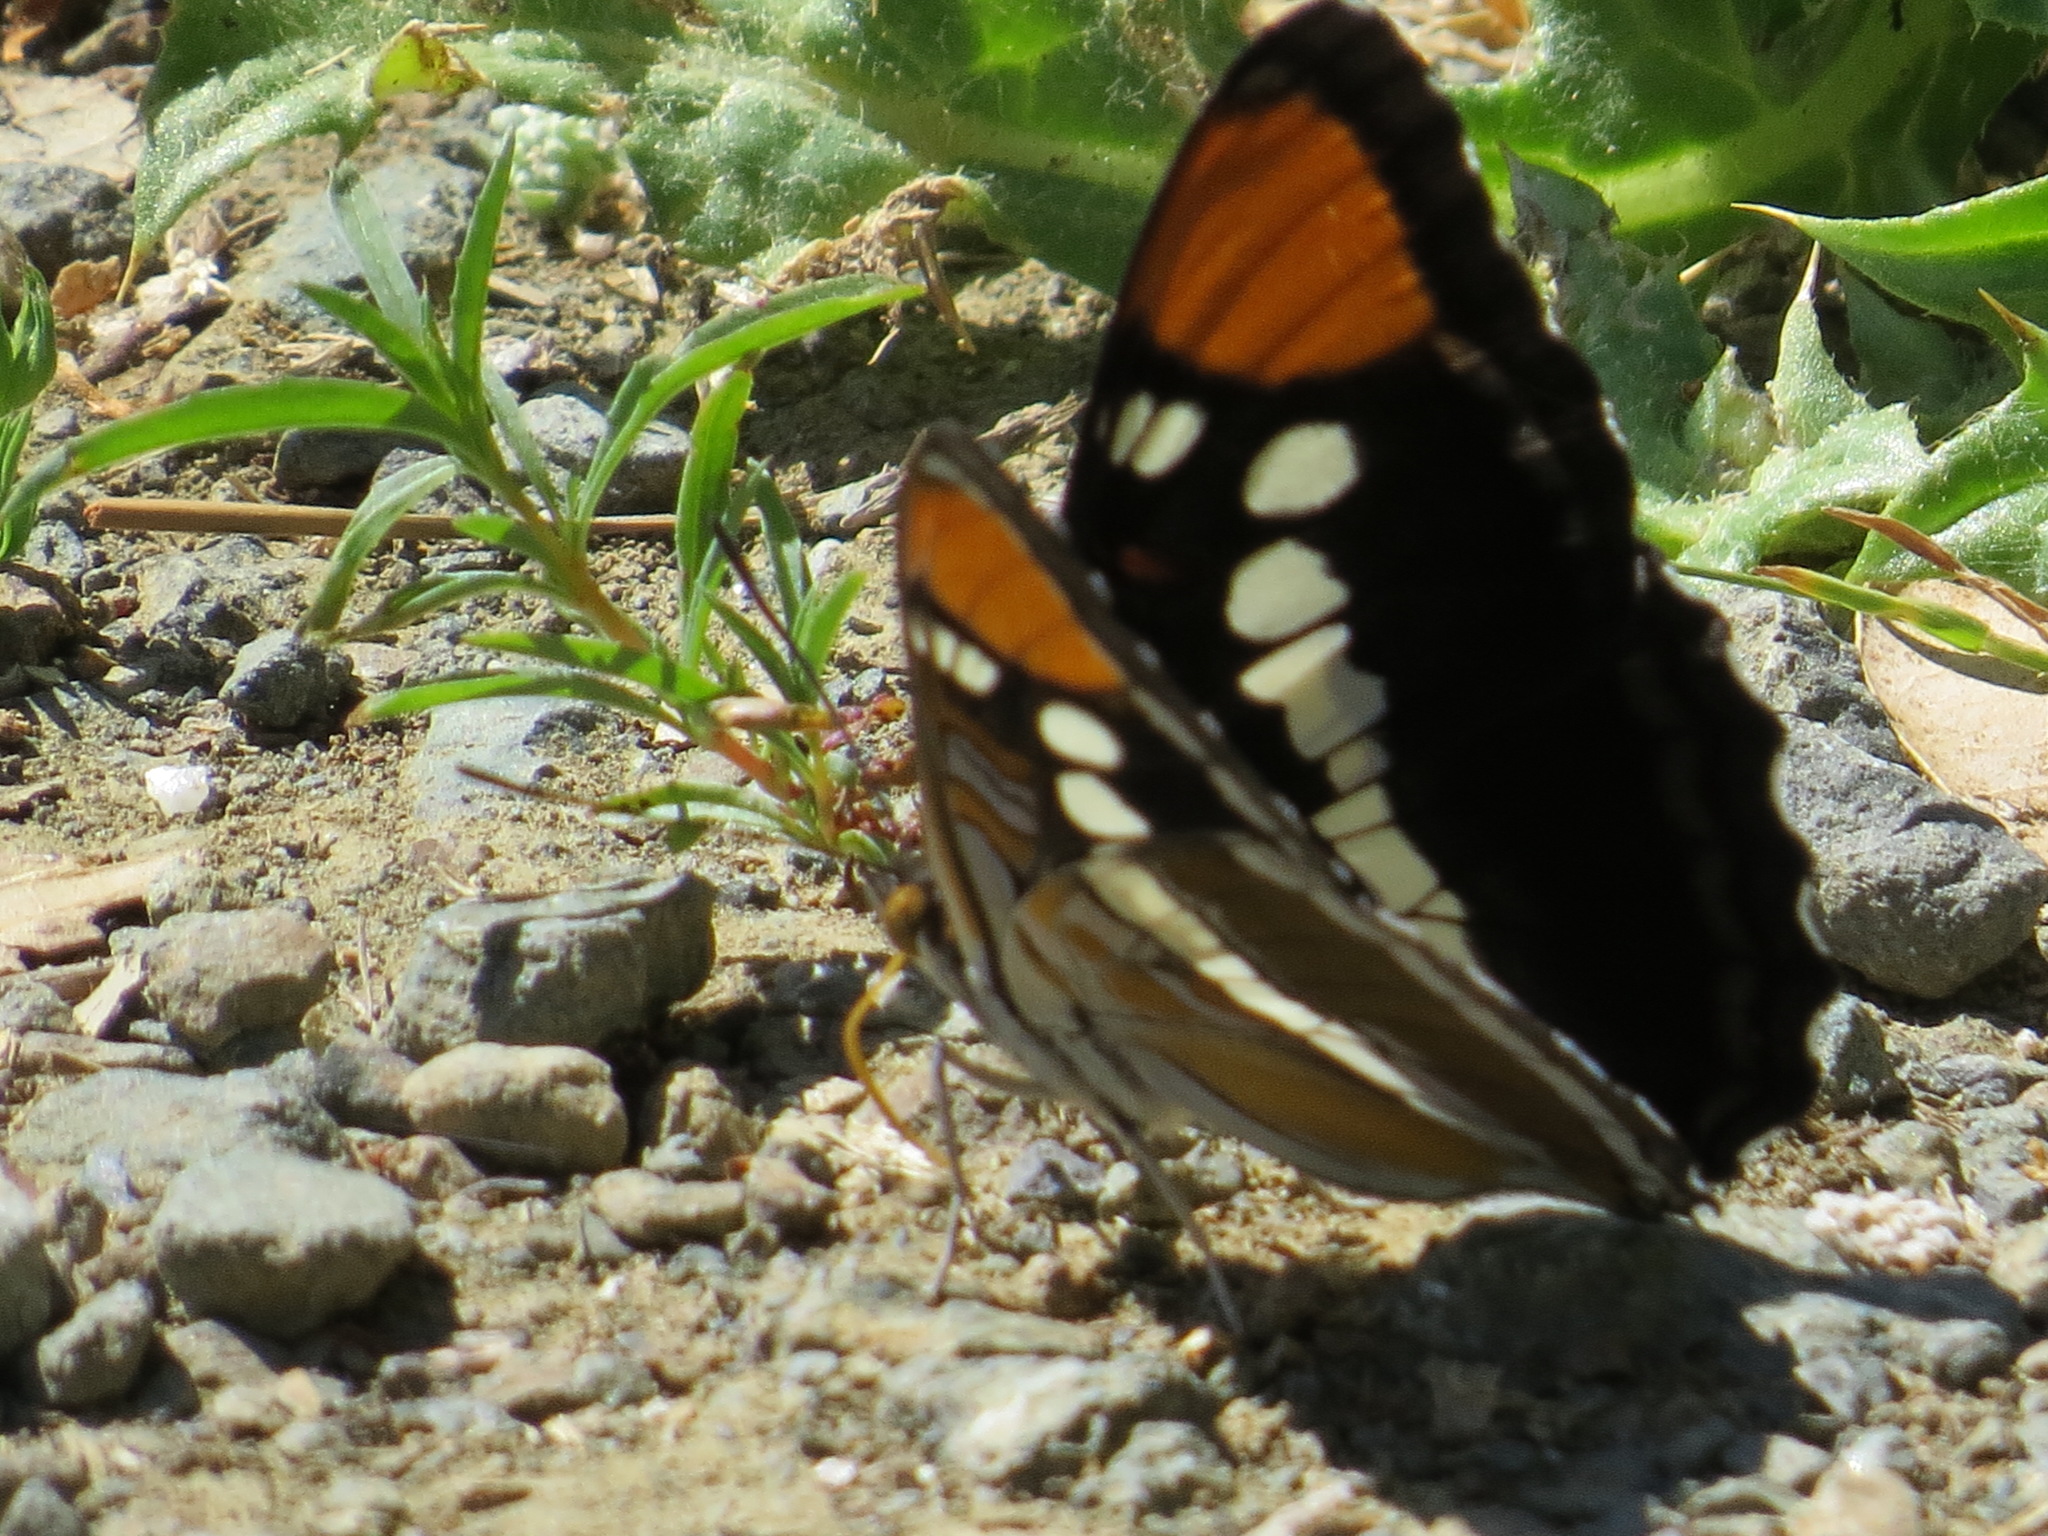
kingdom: Animalia
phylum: Arthropoda
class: Insecta
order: Lepidoptera
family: Nymphalidae
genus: Limenitis
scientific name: Limenitis bredowii
